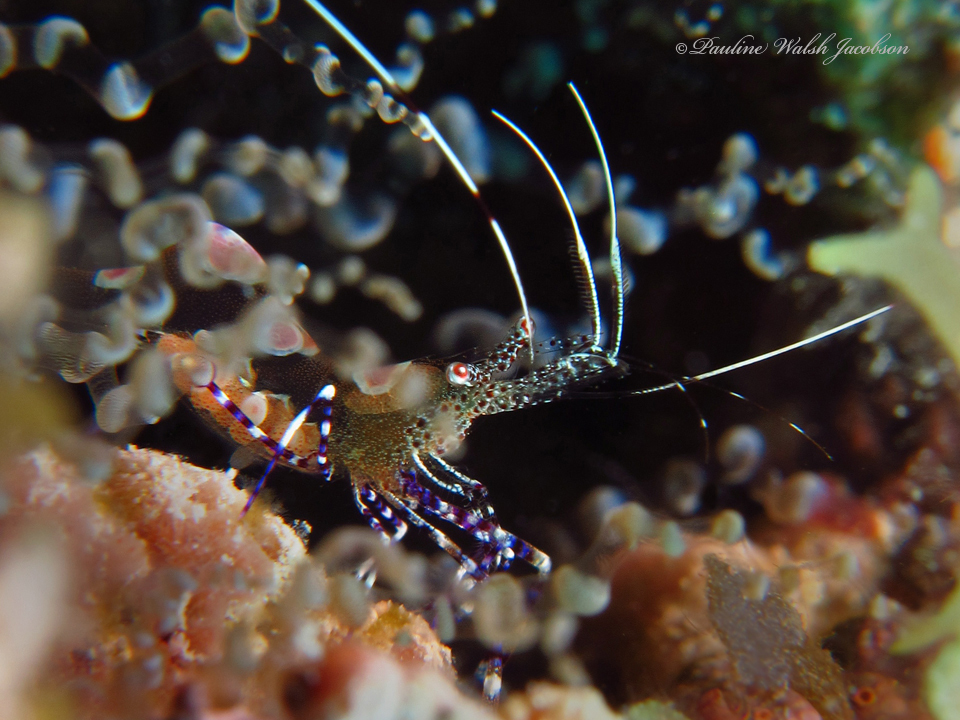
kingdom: Animalia
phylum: Arthropoda
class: Malacostraca
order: Decapoda
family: Palaemonidae
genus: Periclimenes
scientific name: Periclimenes yucatanicus
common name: Spotted cleaning shrimp
